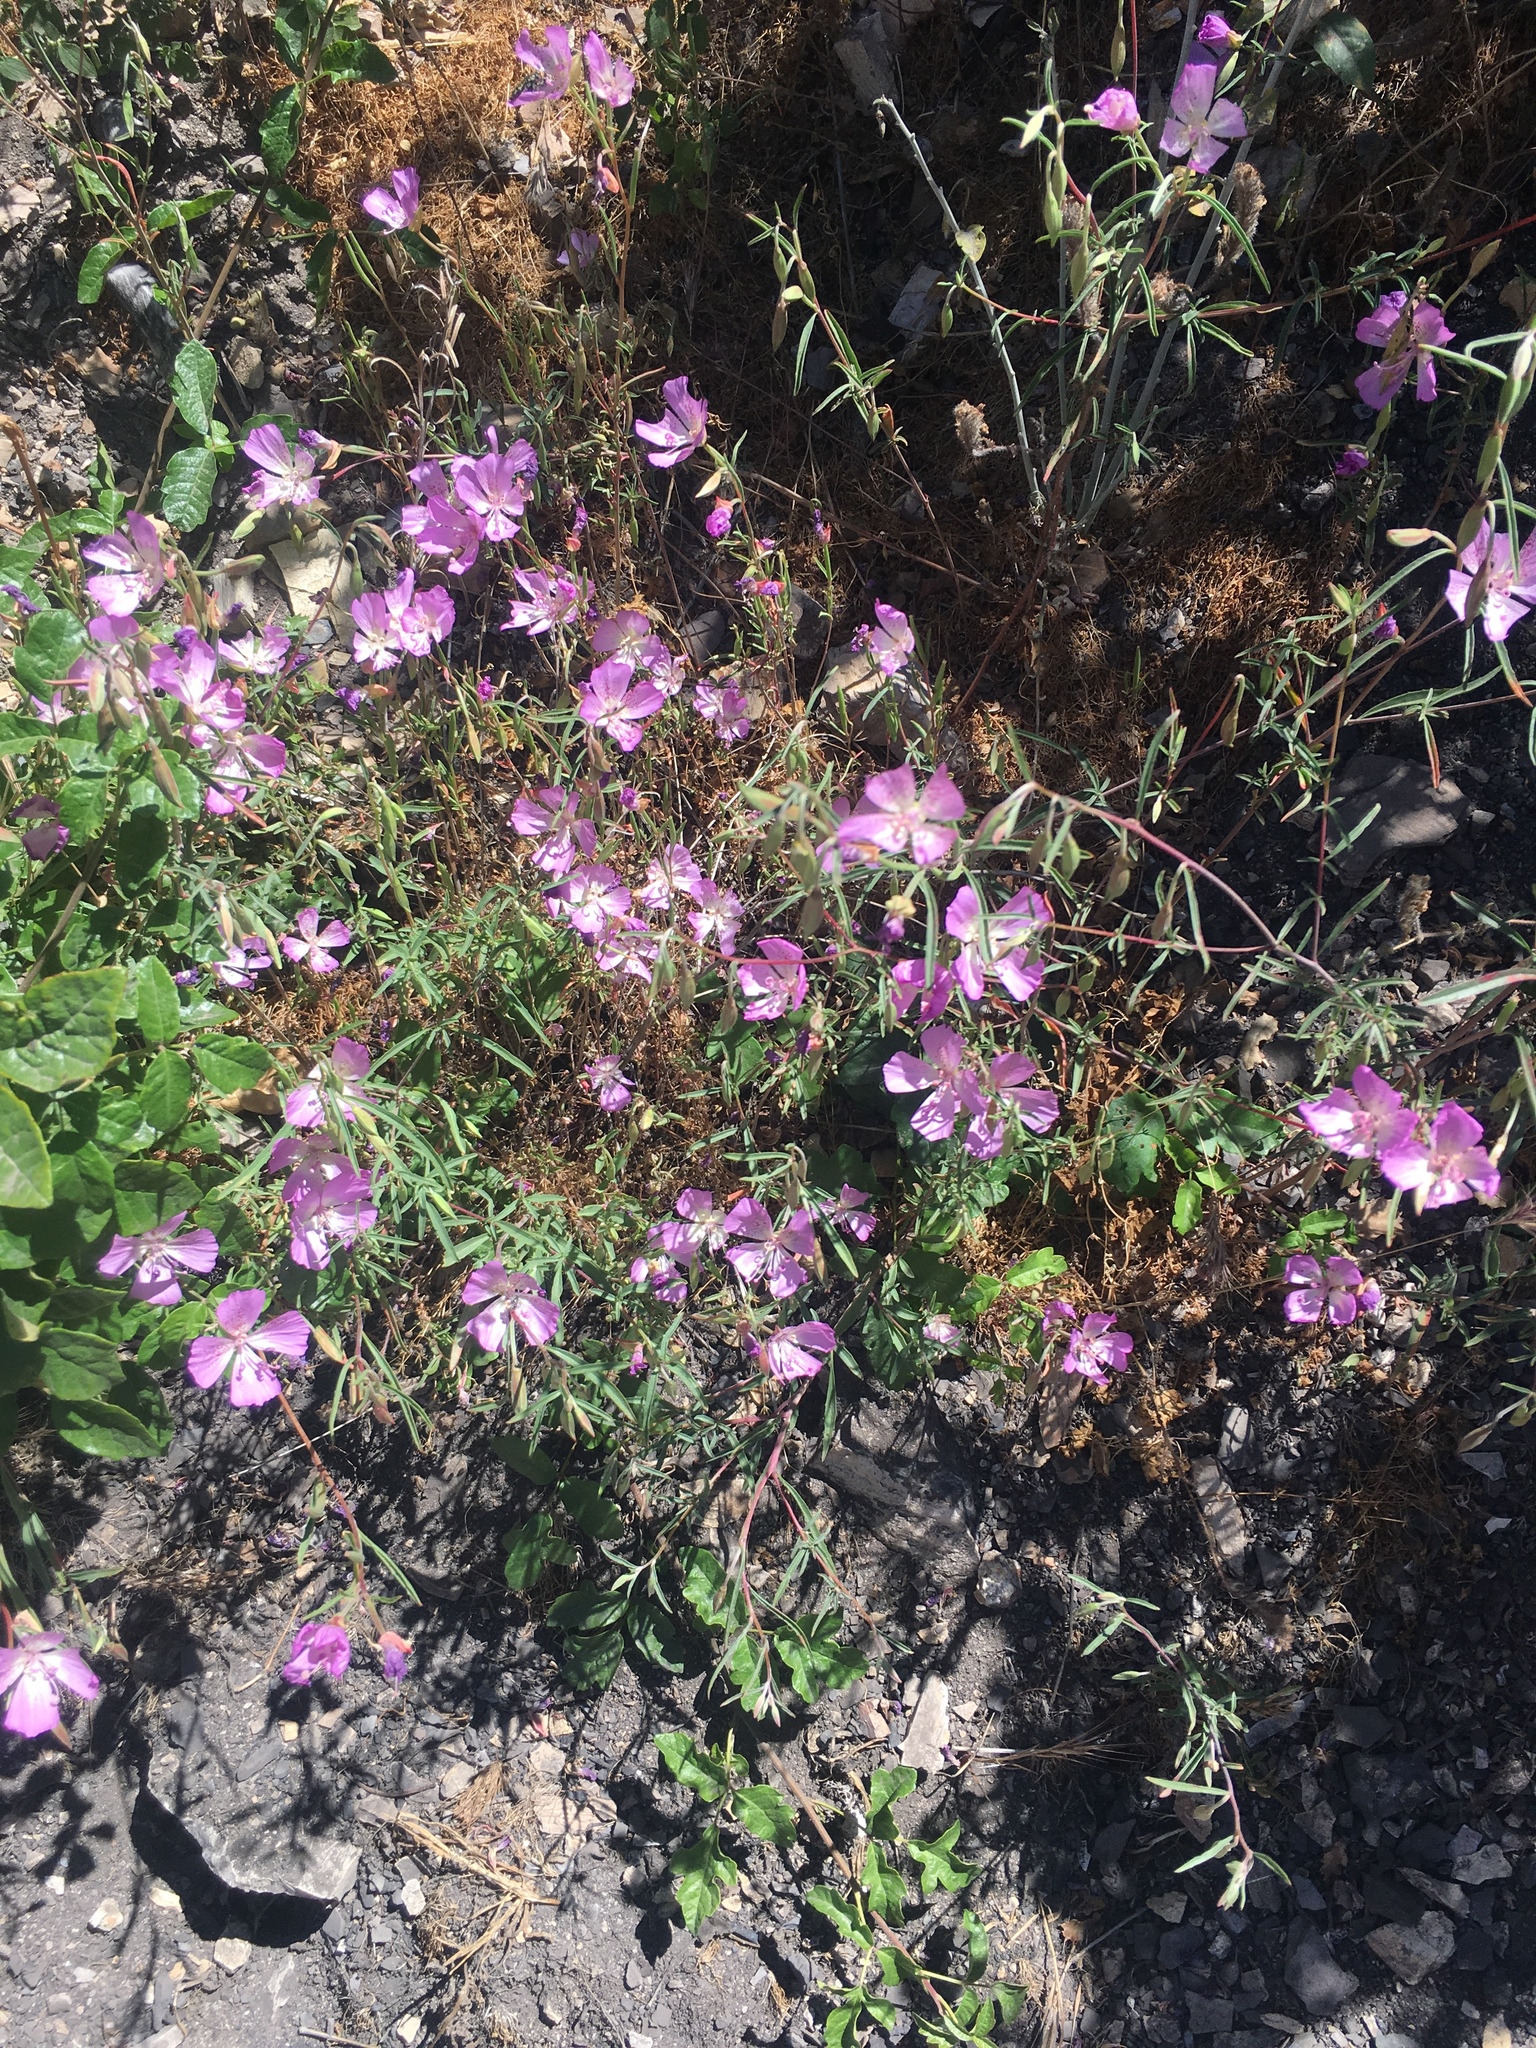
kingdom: Plantae
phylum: Tracheophyta
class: Magnoliopsida
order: Myrtales
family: Onagraceae
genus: Clarkia
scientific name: Clarkia bottae
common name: Punch-bowl godetia
